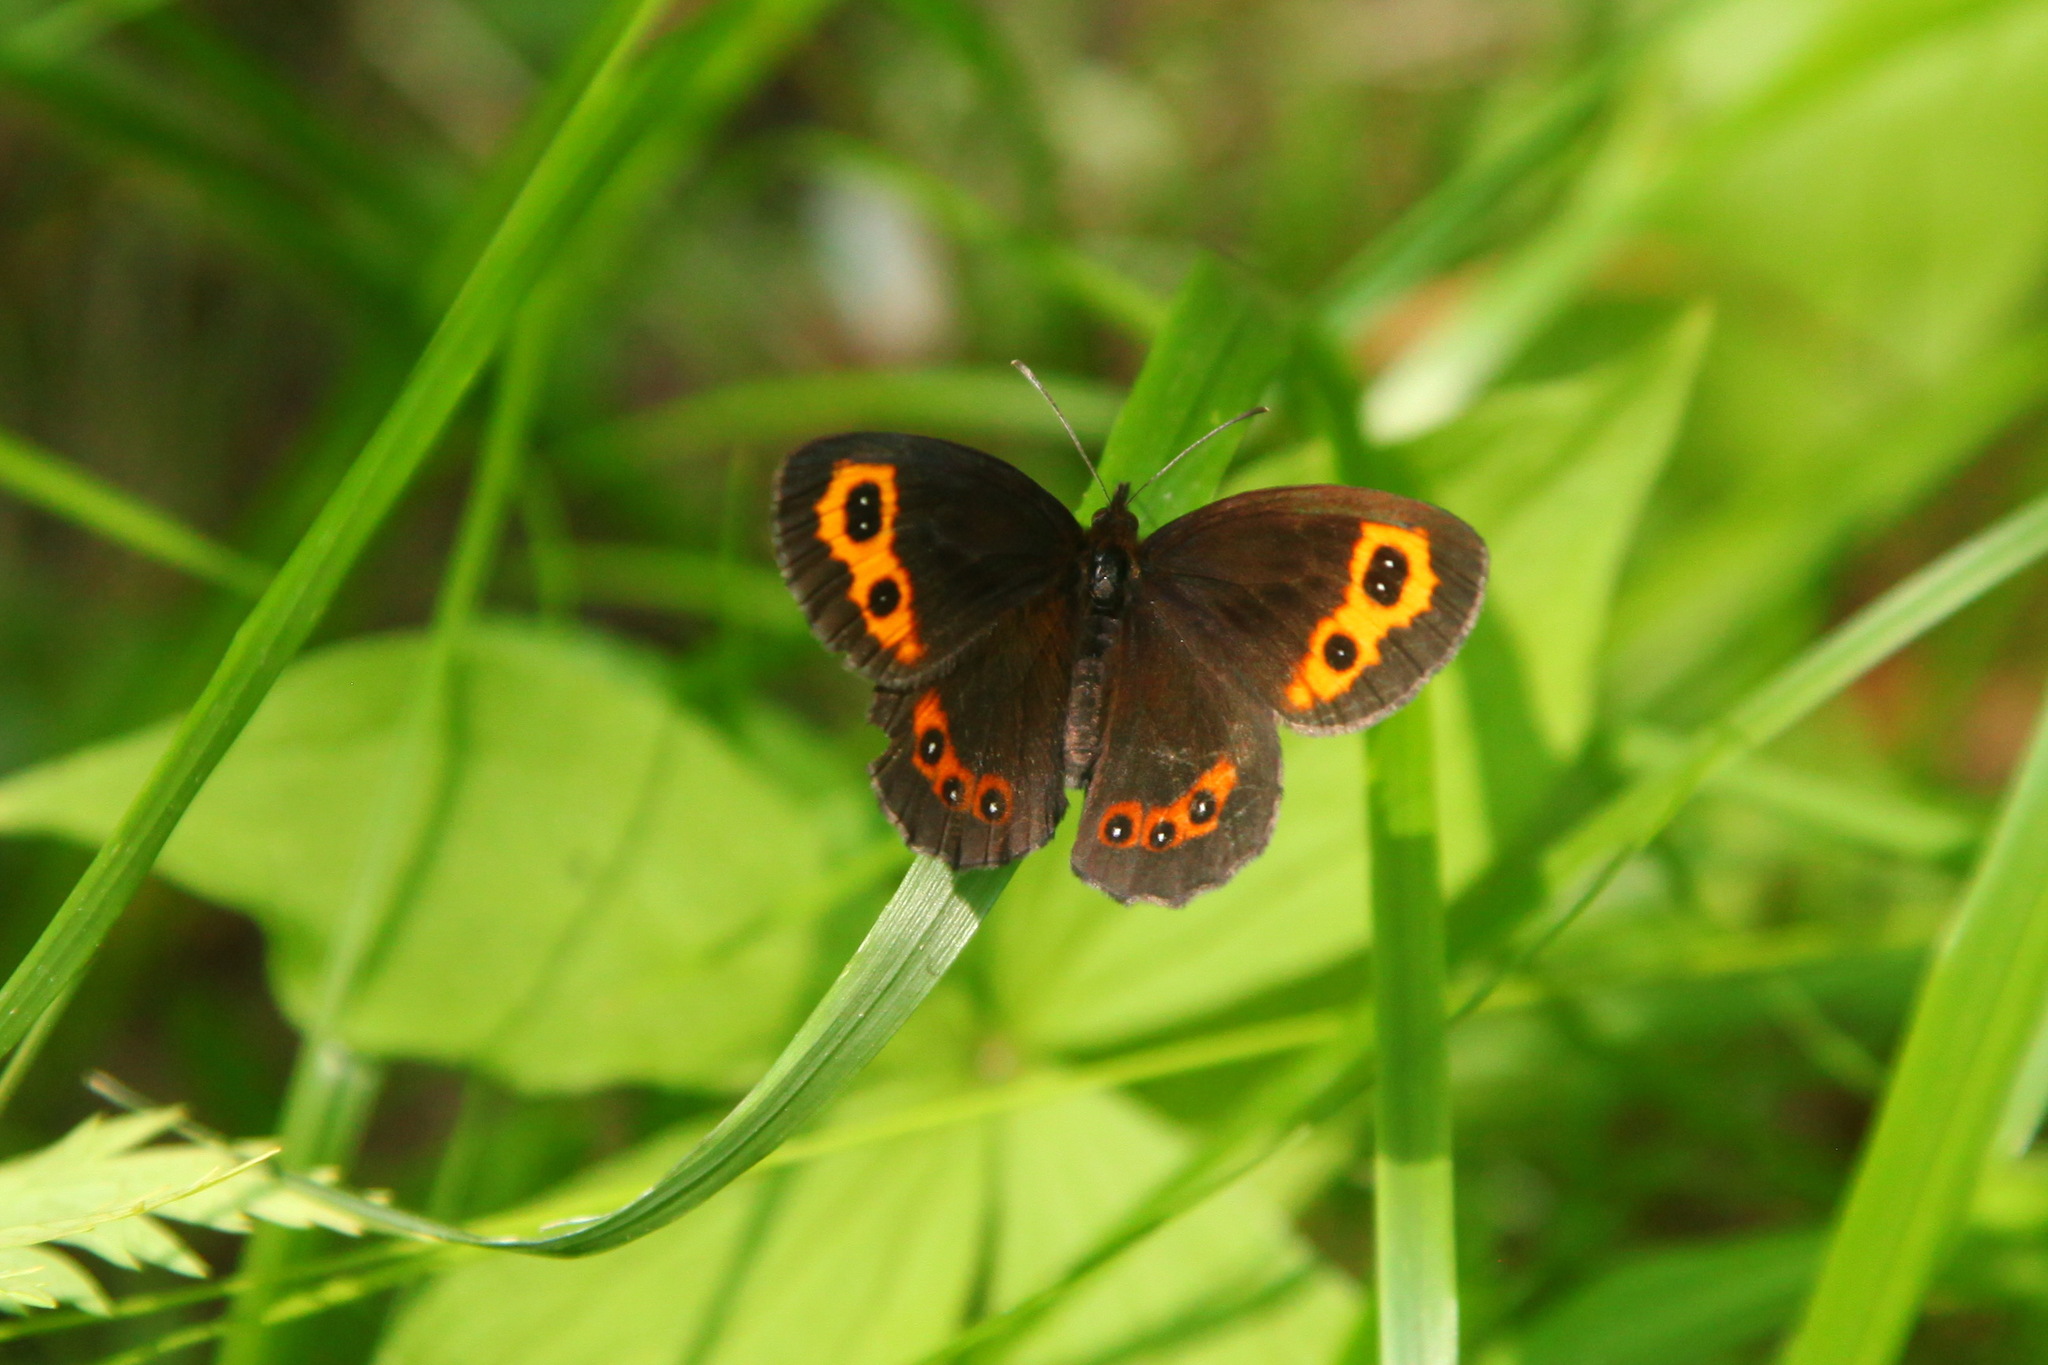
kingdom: Animalia
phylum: Arthropoda
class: Insecta
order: Lepidoptera
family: Nymphalidae
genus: Erebia
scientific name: Erebia neriene
